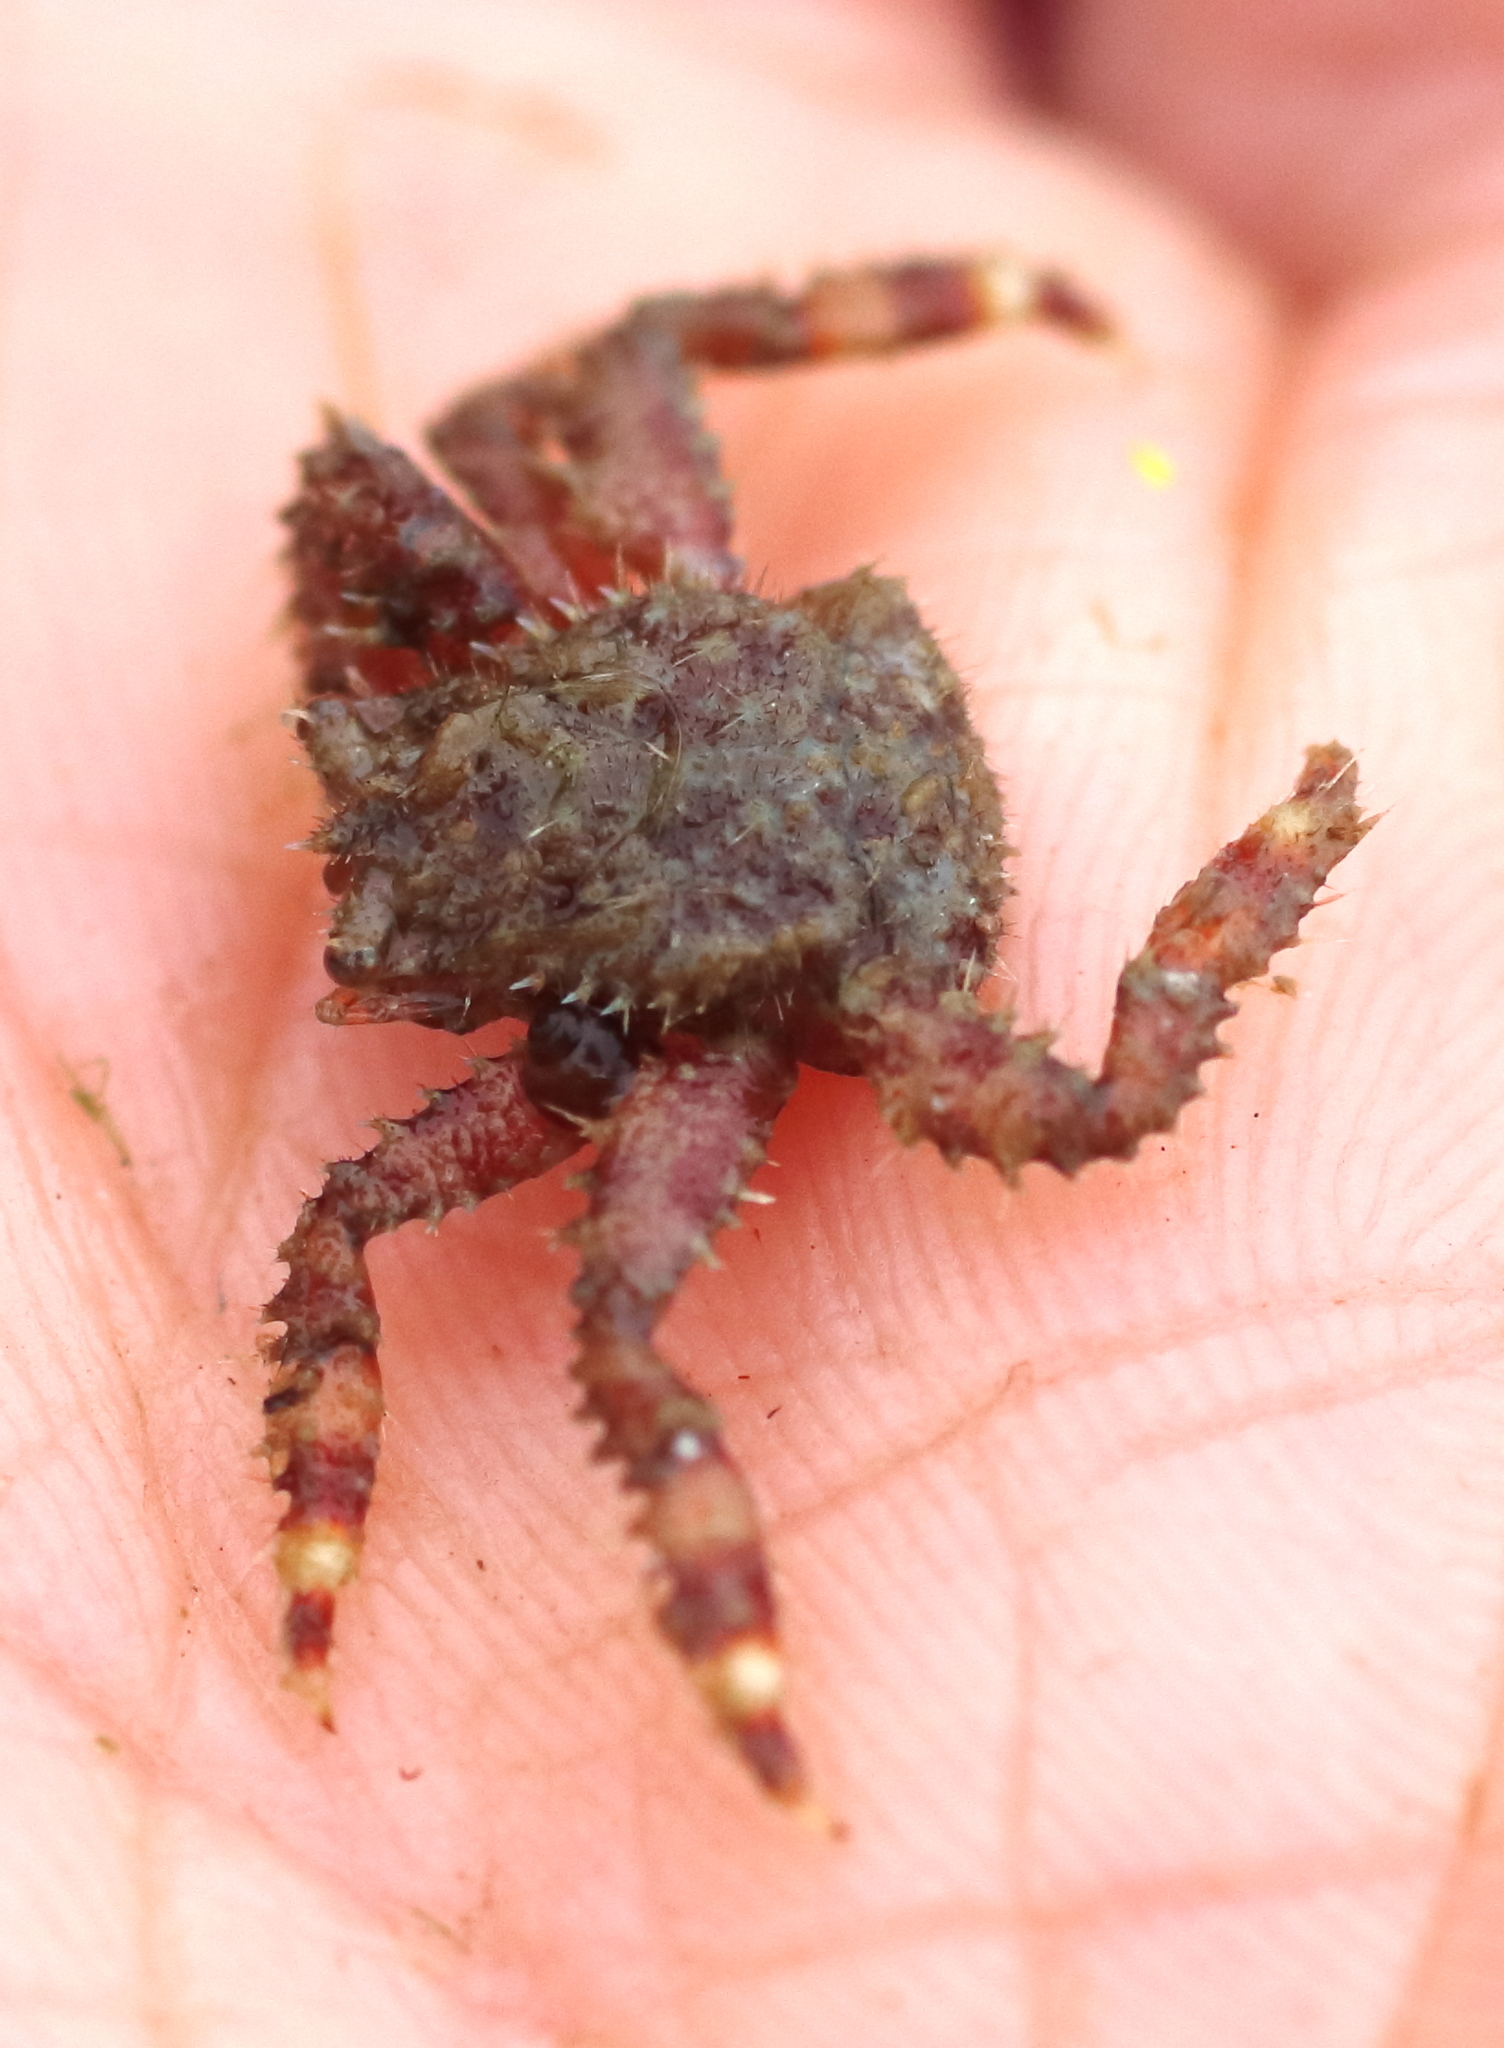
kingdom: Animalia
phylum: Arthropoda
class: Malacostraca
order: Decapoda
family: Hapalogastridae
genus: Hapalogaster
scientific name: Hapalogaster grebnitzkii
